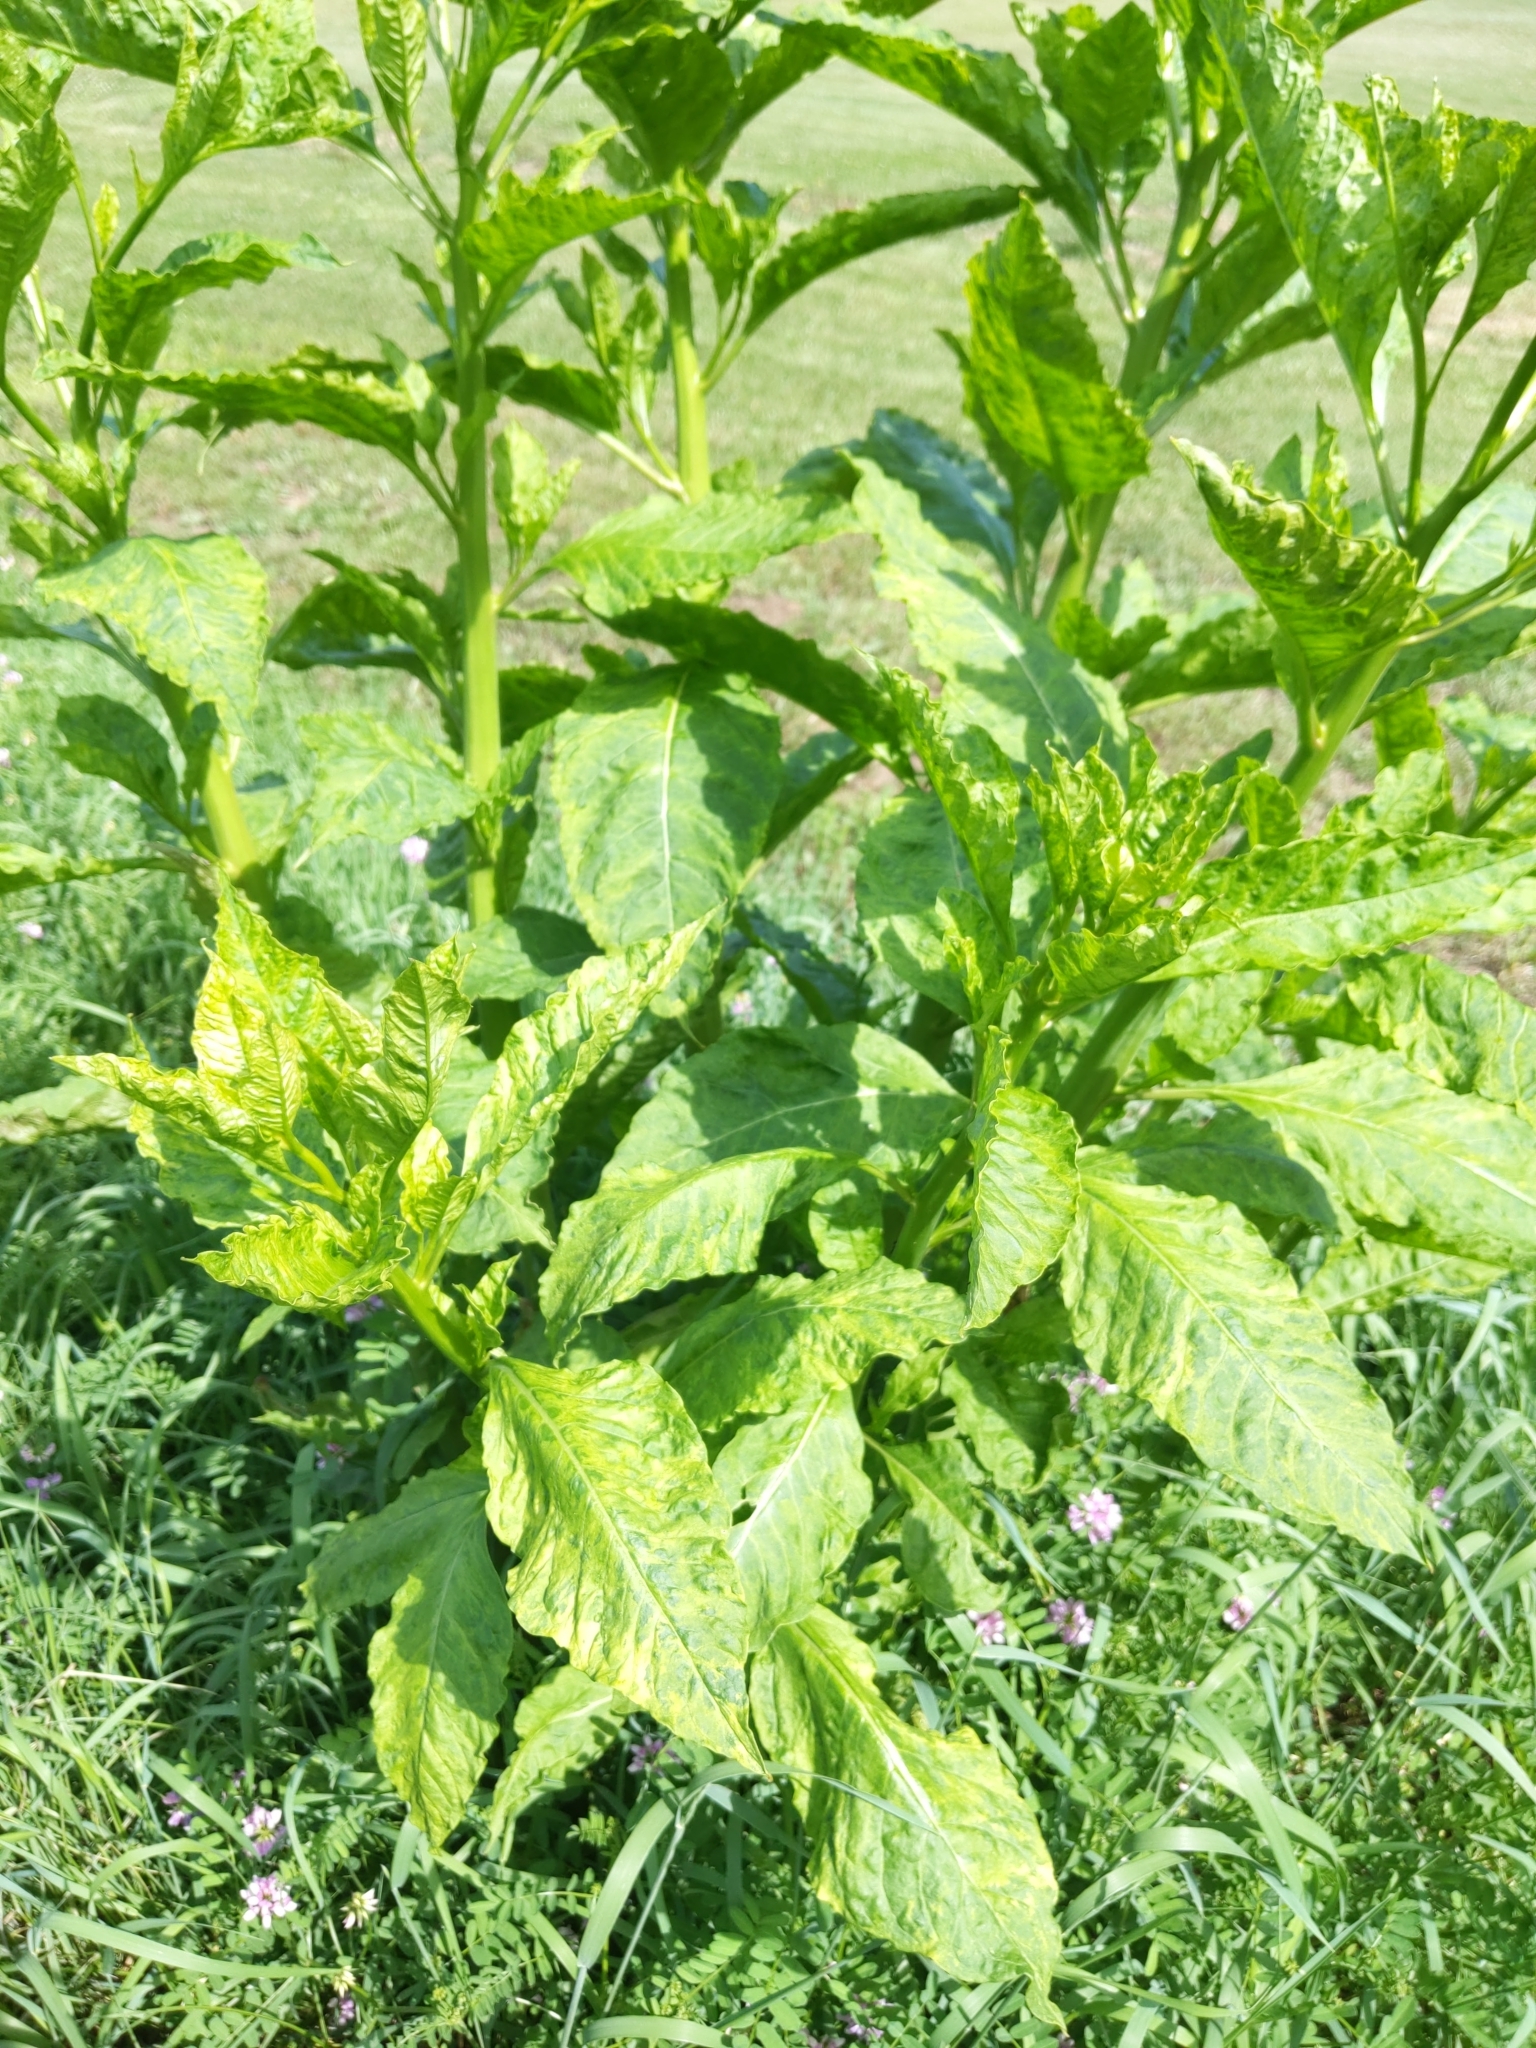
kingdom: Plantae
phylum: Tracheophyta
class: Magnoliopsida
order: Caryophyllales
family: Phytolaccaceae
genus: Phytolacca
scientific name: Phytolacca americana
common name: American pokeweed
